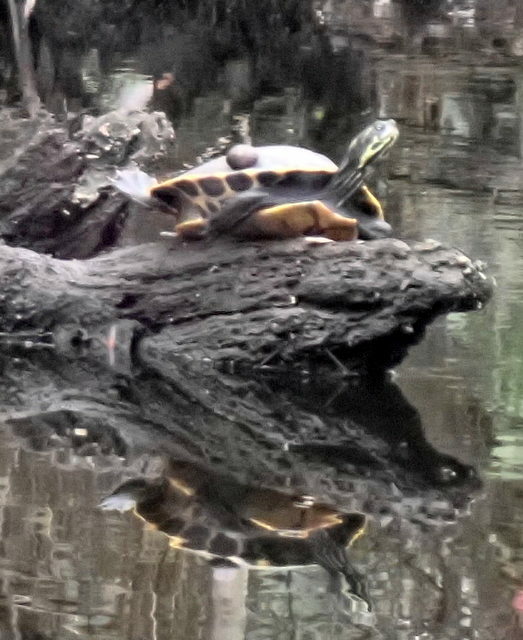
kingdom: Animalia
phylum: Chordata
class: Testudines
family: Emydidae
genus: Pseudemys
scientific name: Pseudemys concinna
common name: Eastern river cooter
